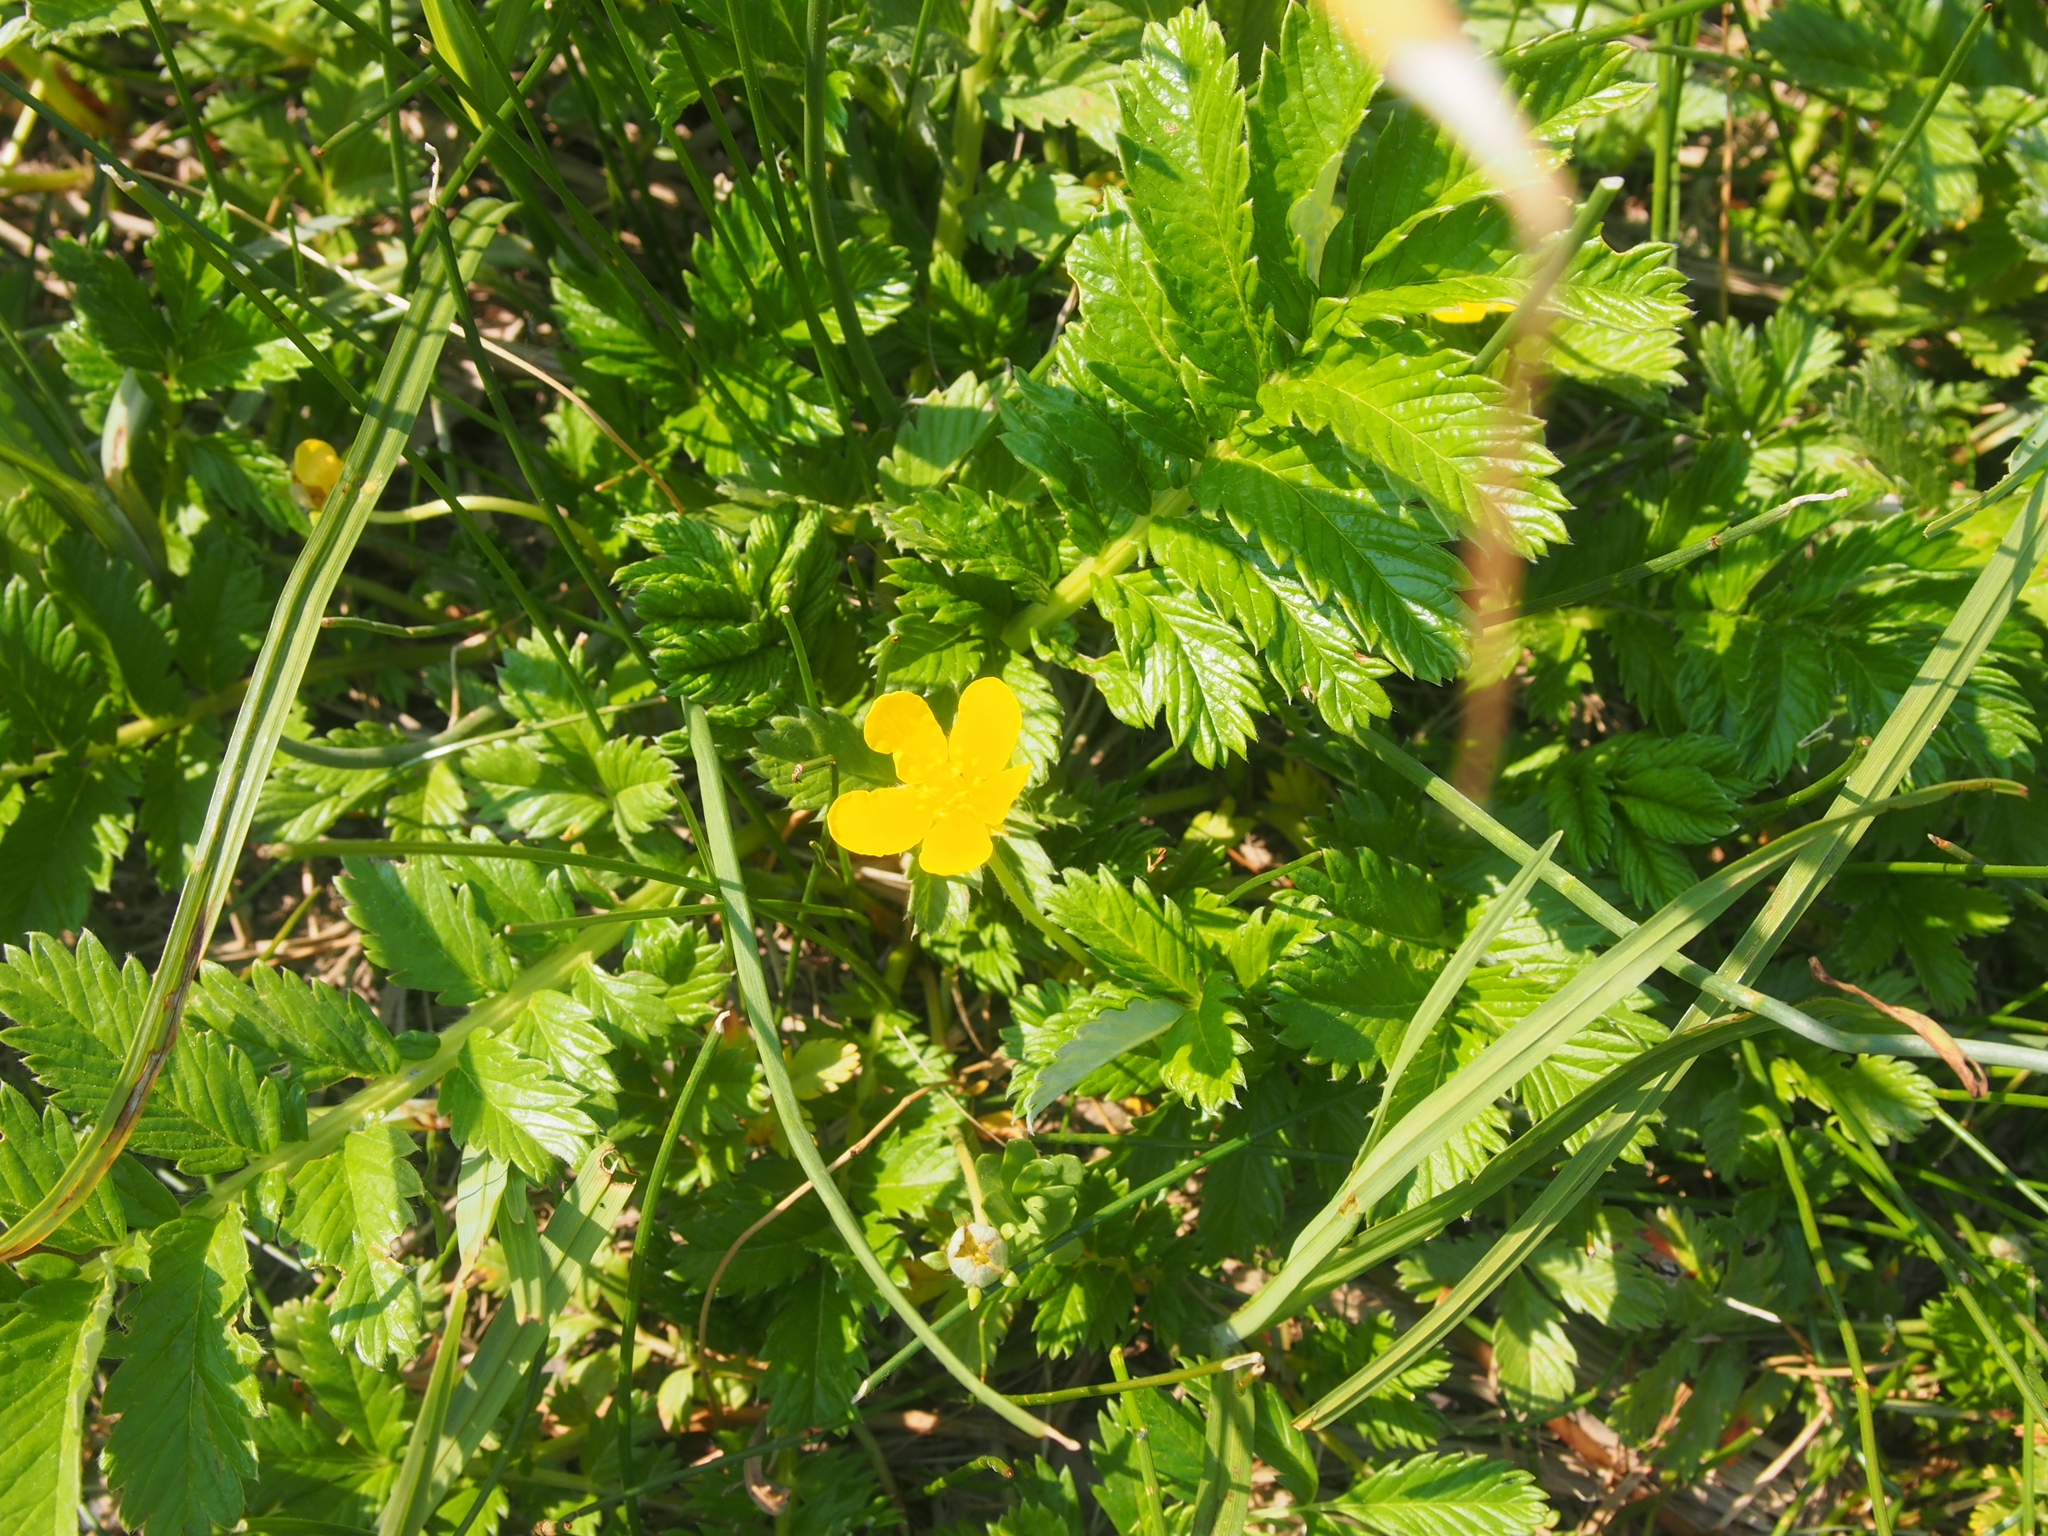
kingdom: Plantae
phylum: Tracheophyta
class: Magnoliopsida
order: Rosales
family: Rosaceae
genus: Argentina
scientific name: Argentina anserina
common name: Common silverweed
